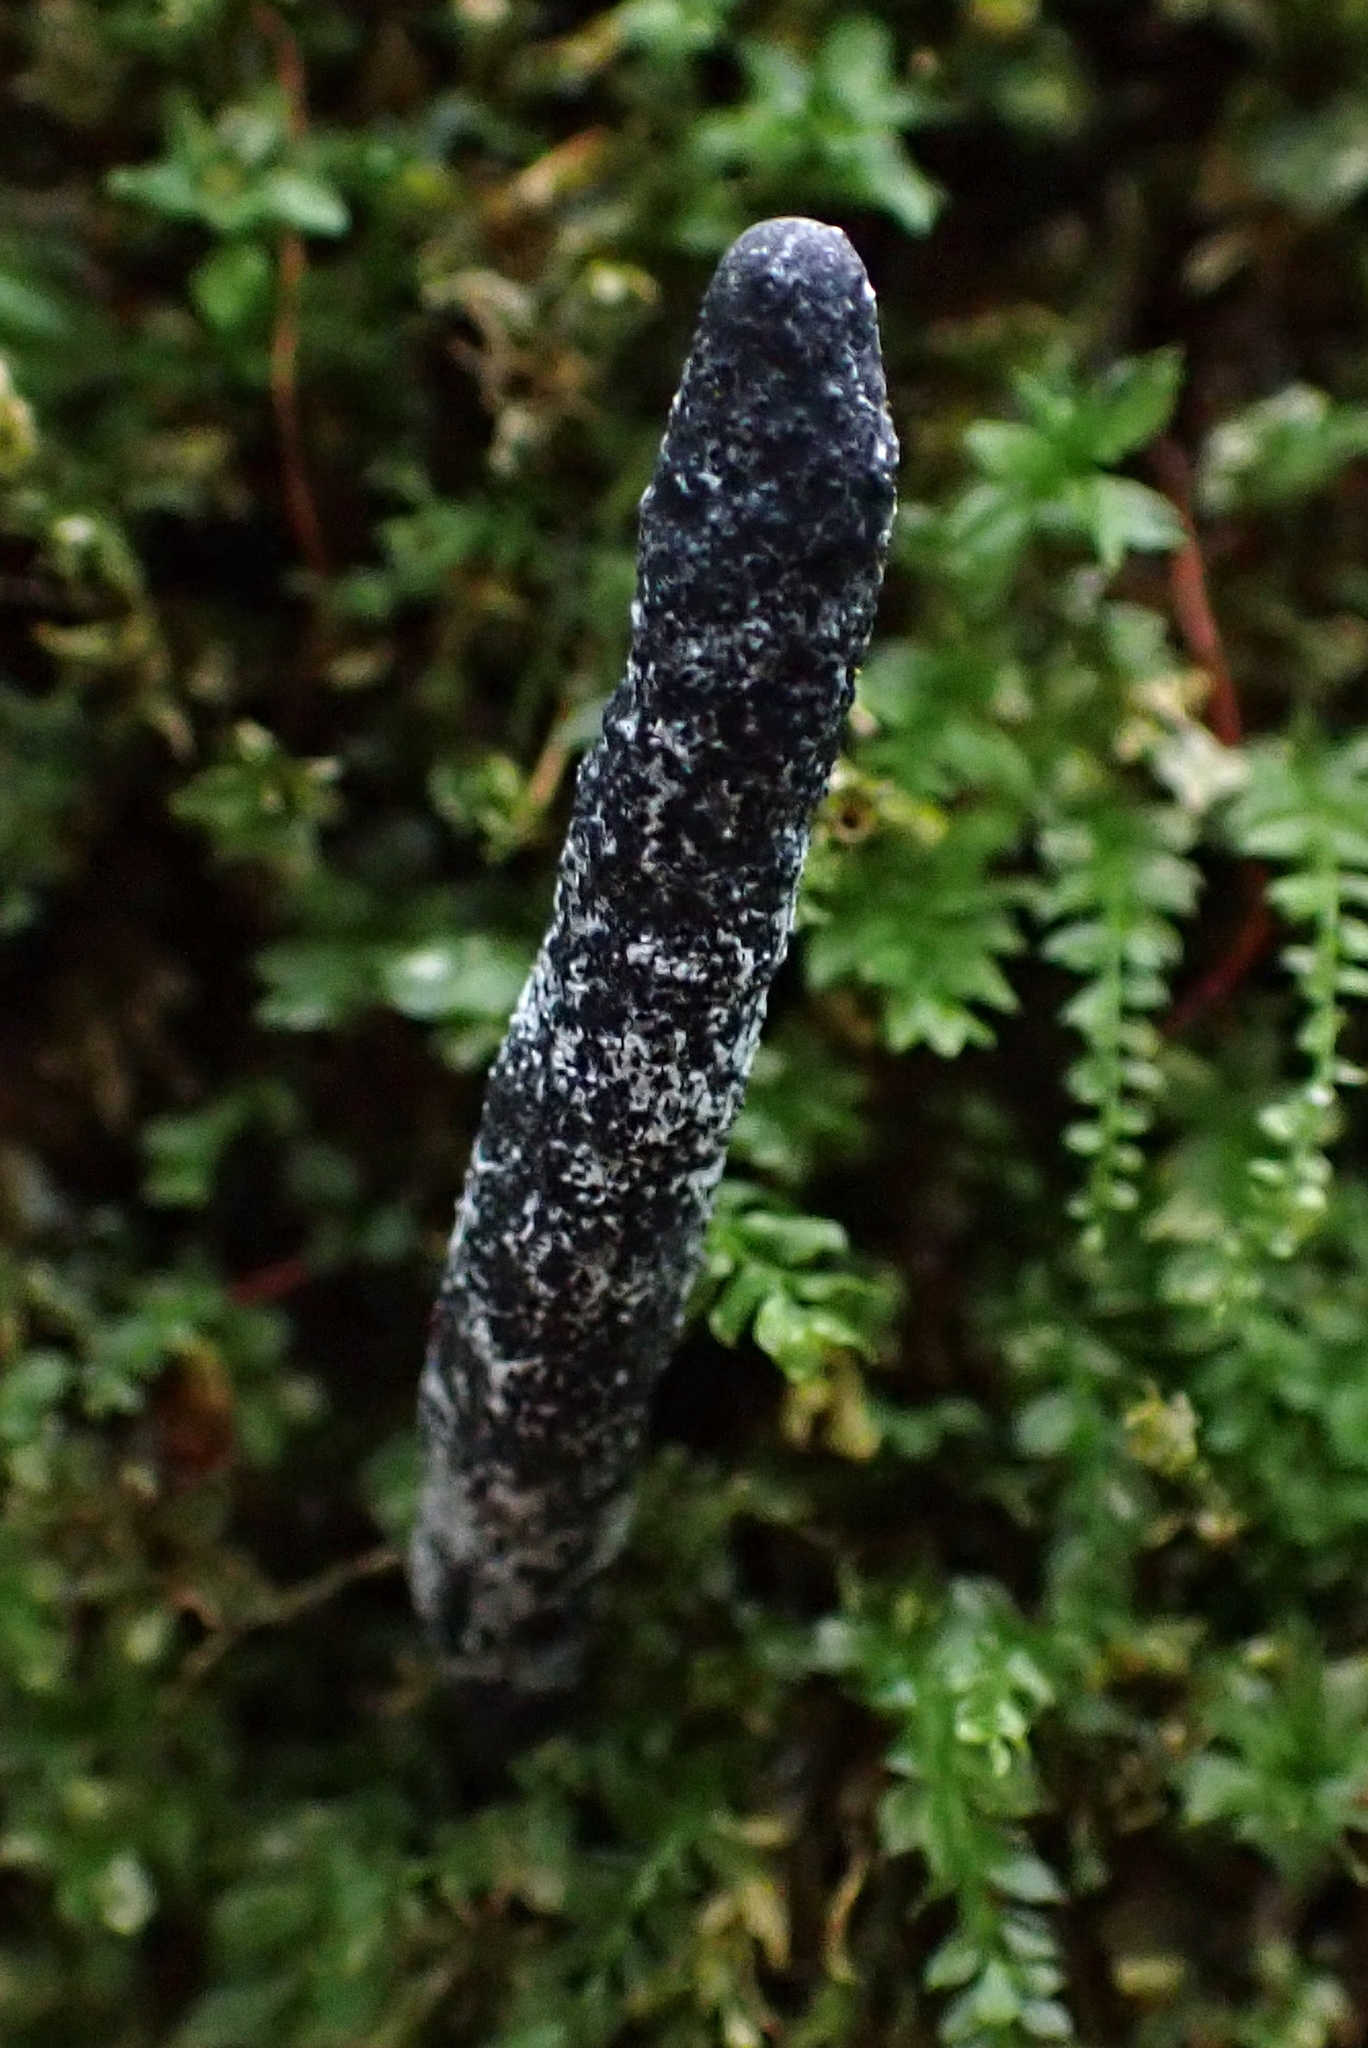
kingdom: Fungi
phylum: Ascomycota
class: Sordariomycetes
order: Xylariales
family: Xylariaceae
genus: Xylaria
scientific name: Xylaria longipes
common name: Dead moll's fingers
